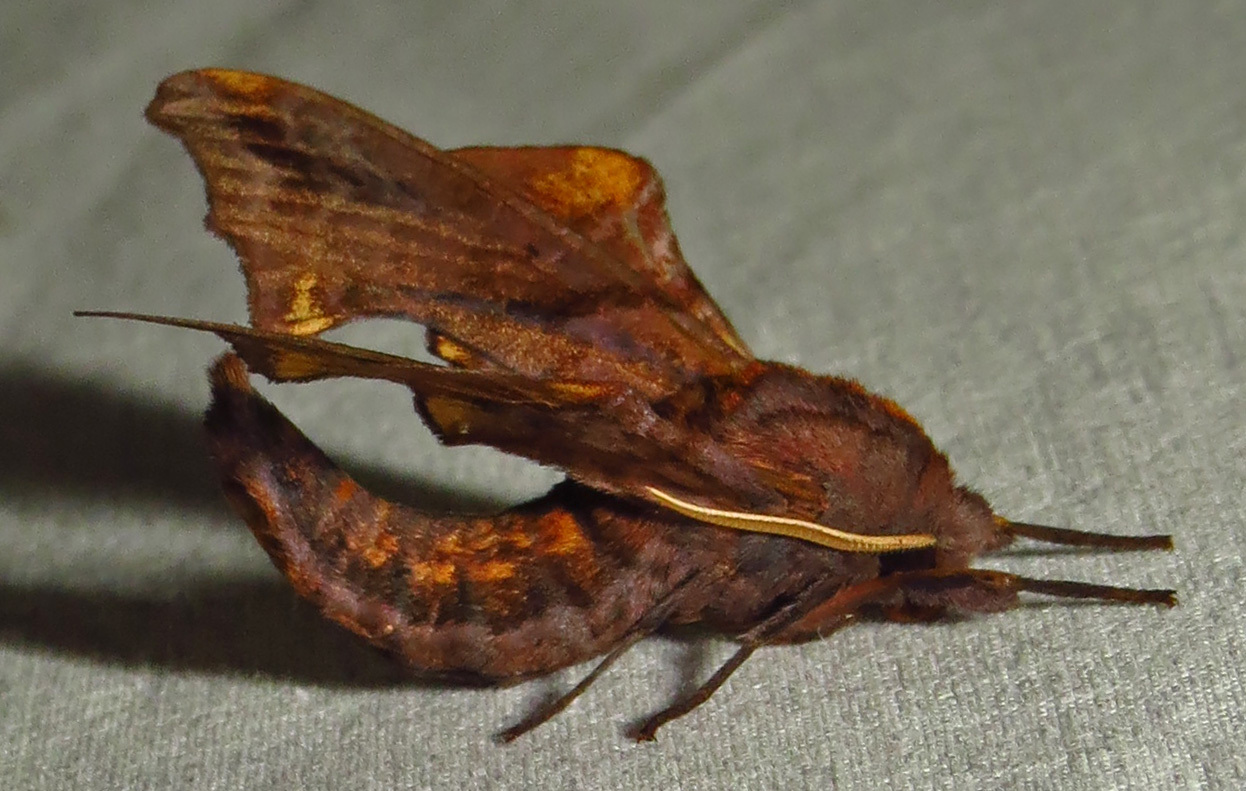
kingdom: Animalia
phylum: Arthropoda
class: Insecta
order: Lepidoptera
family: Sphingidae
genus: Paonias
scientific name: Paonias myops
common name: Small-eyed sphinx
